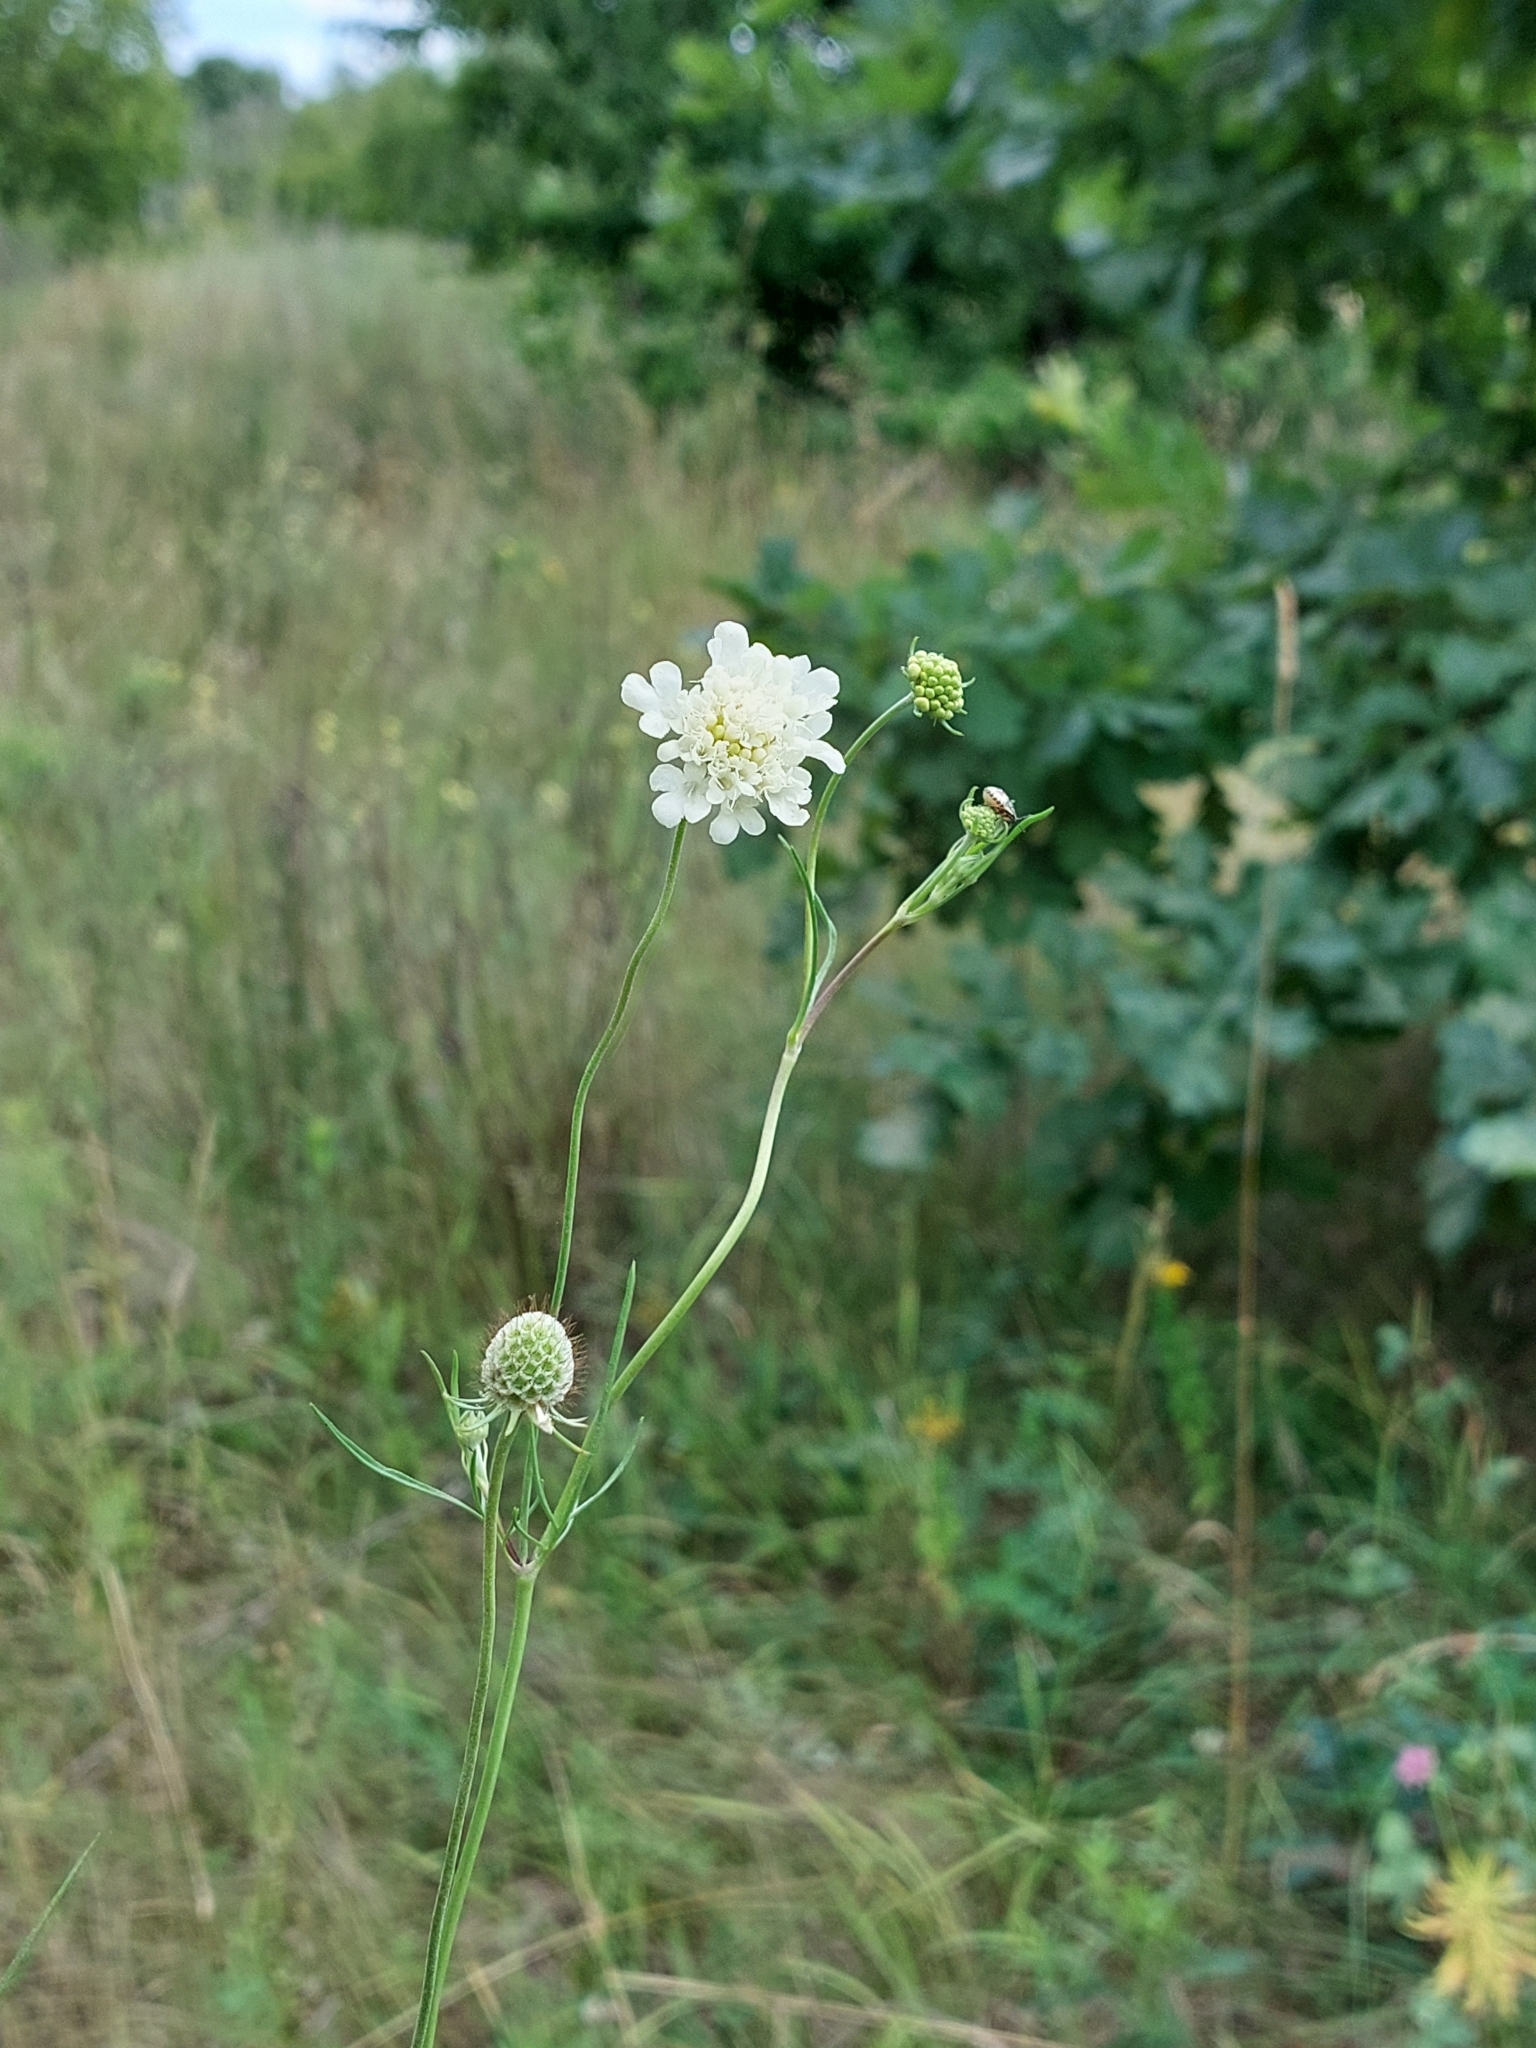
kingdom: Plantae
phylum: Tracheophyta
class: Magnoliopsida
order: Dipsacales
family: Caprifoliaceae
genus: Scabiosa
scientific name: Scabiosa ochroleuca
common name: Cream pincushions
